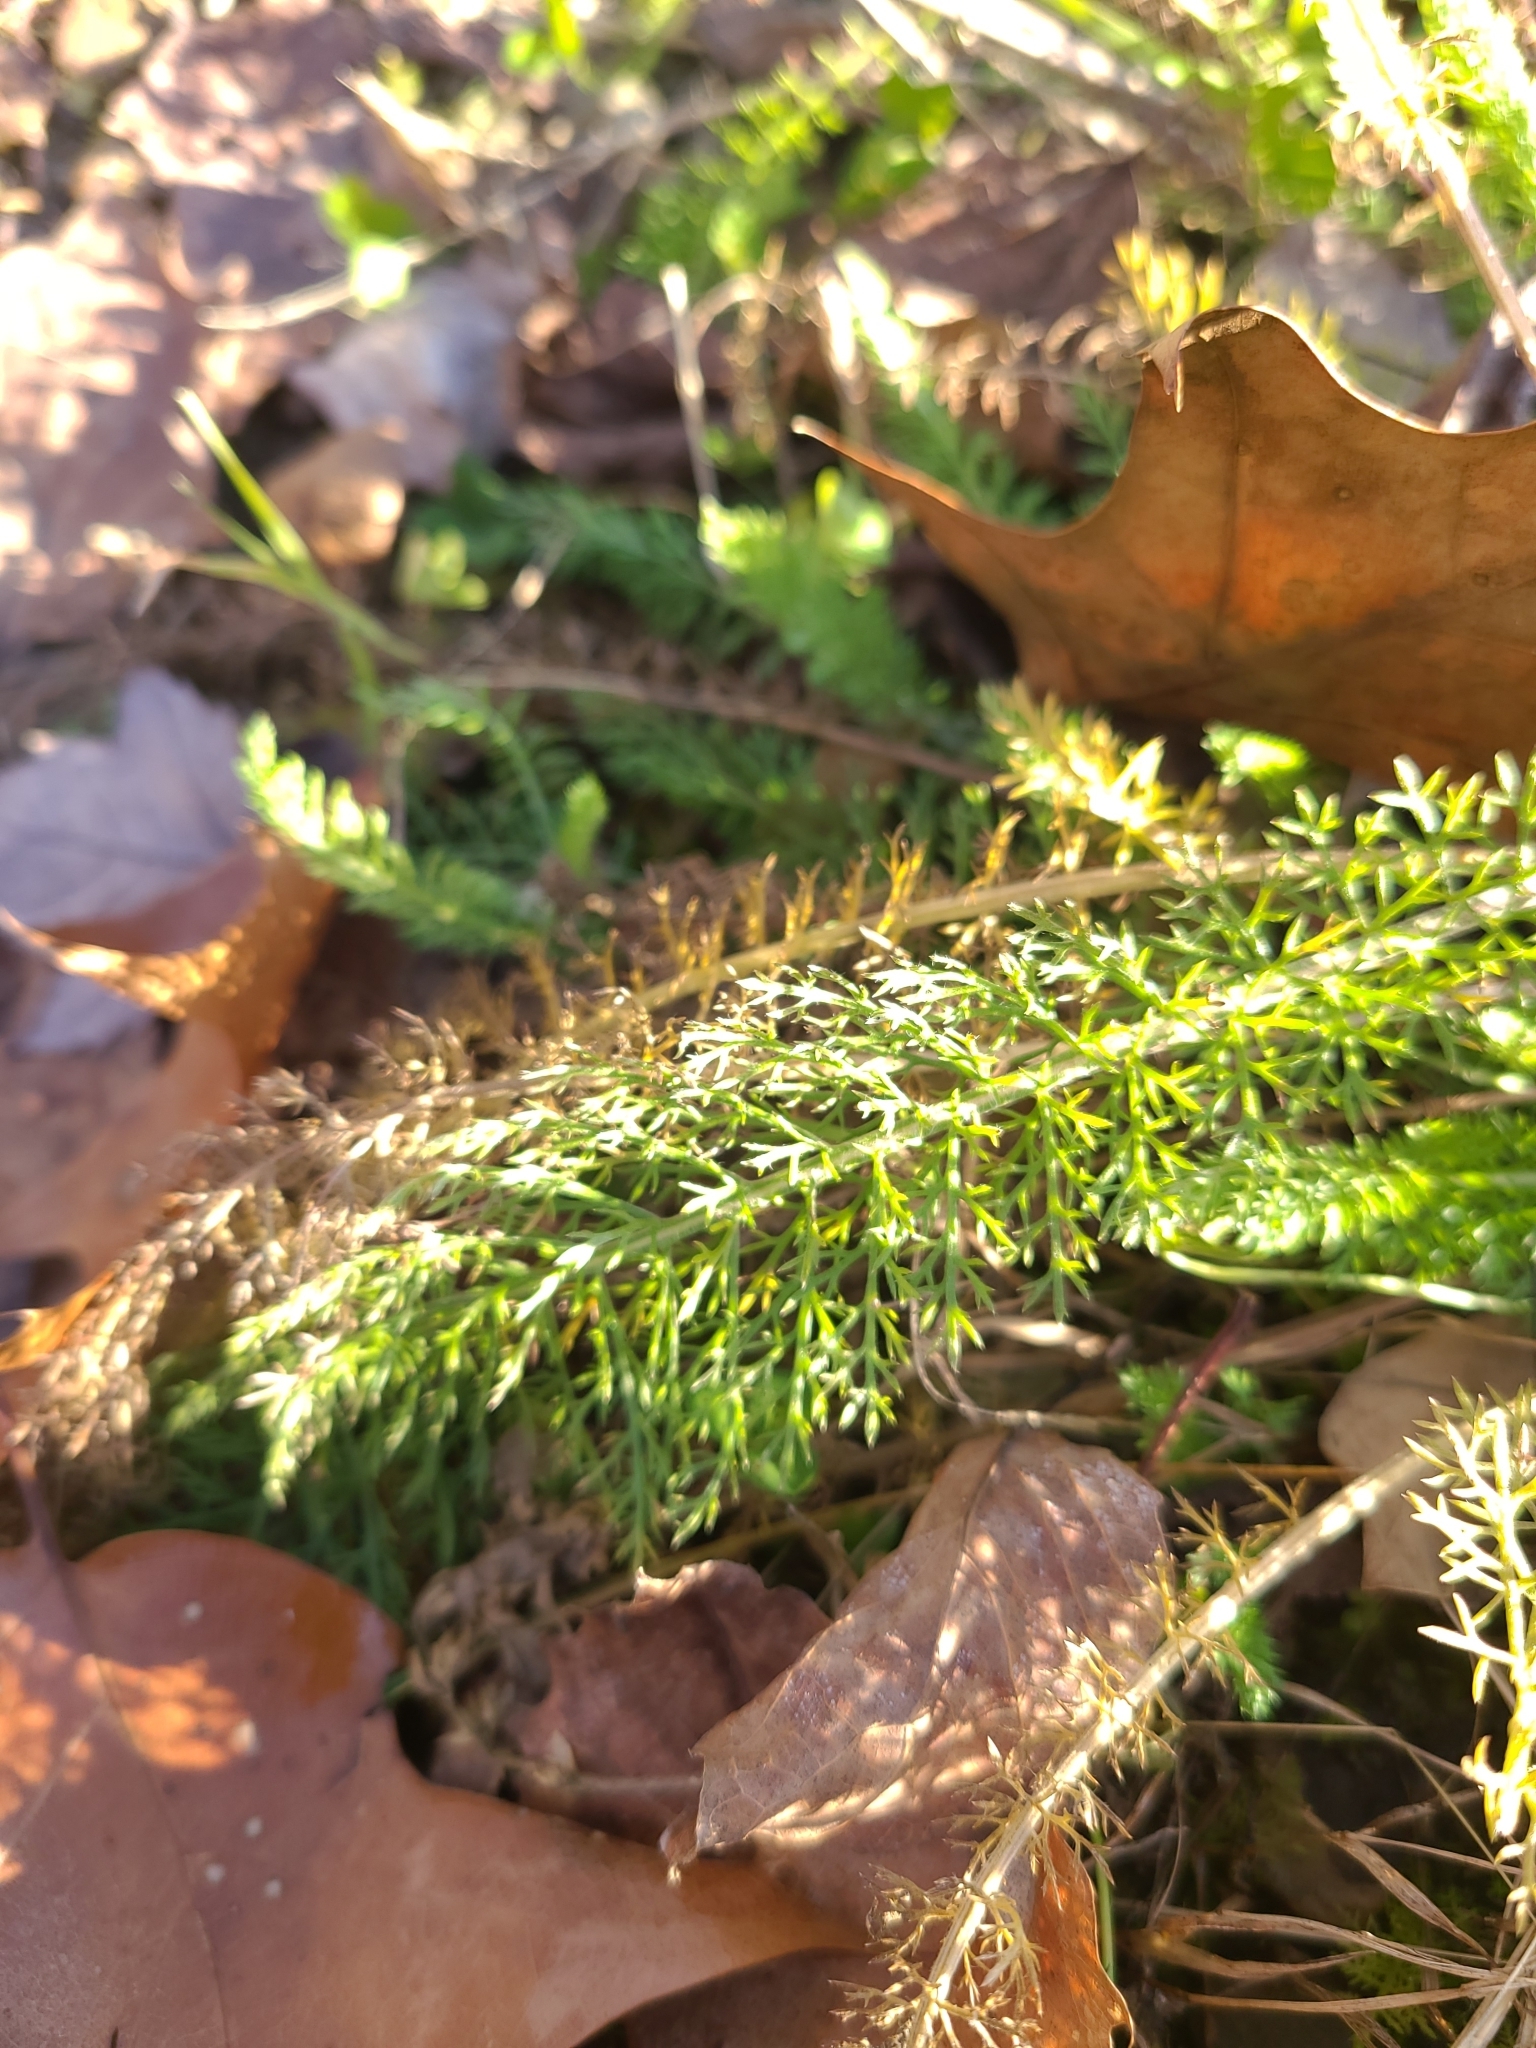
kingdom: Plantae
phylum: Tracheophyta
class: Magnoliopsida
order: Asterales
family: Asteraceae
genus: Achillea
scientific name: Achillea millefolium
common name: Yarrow
